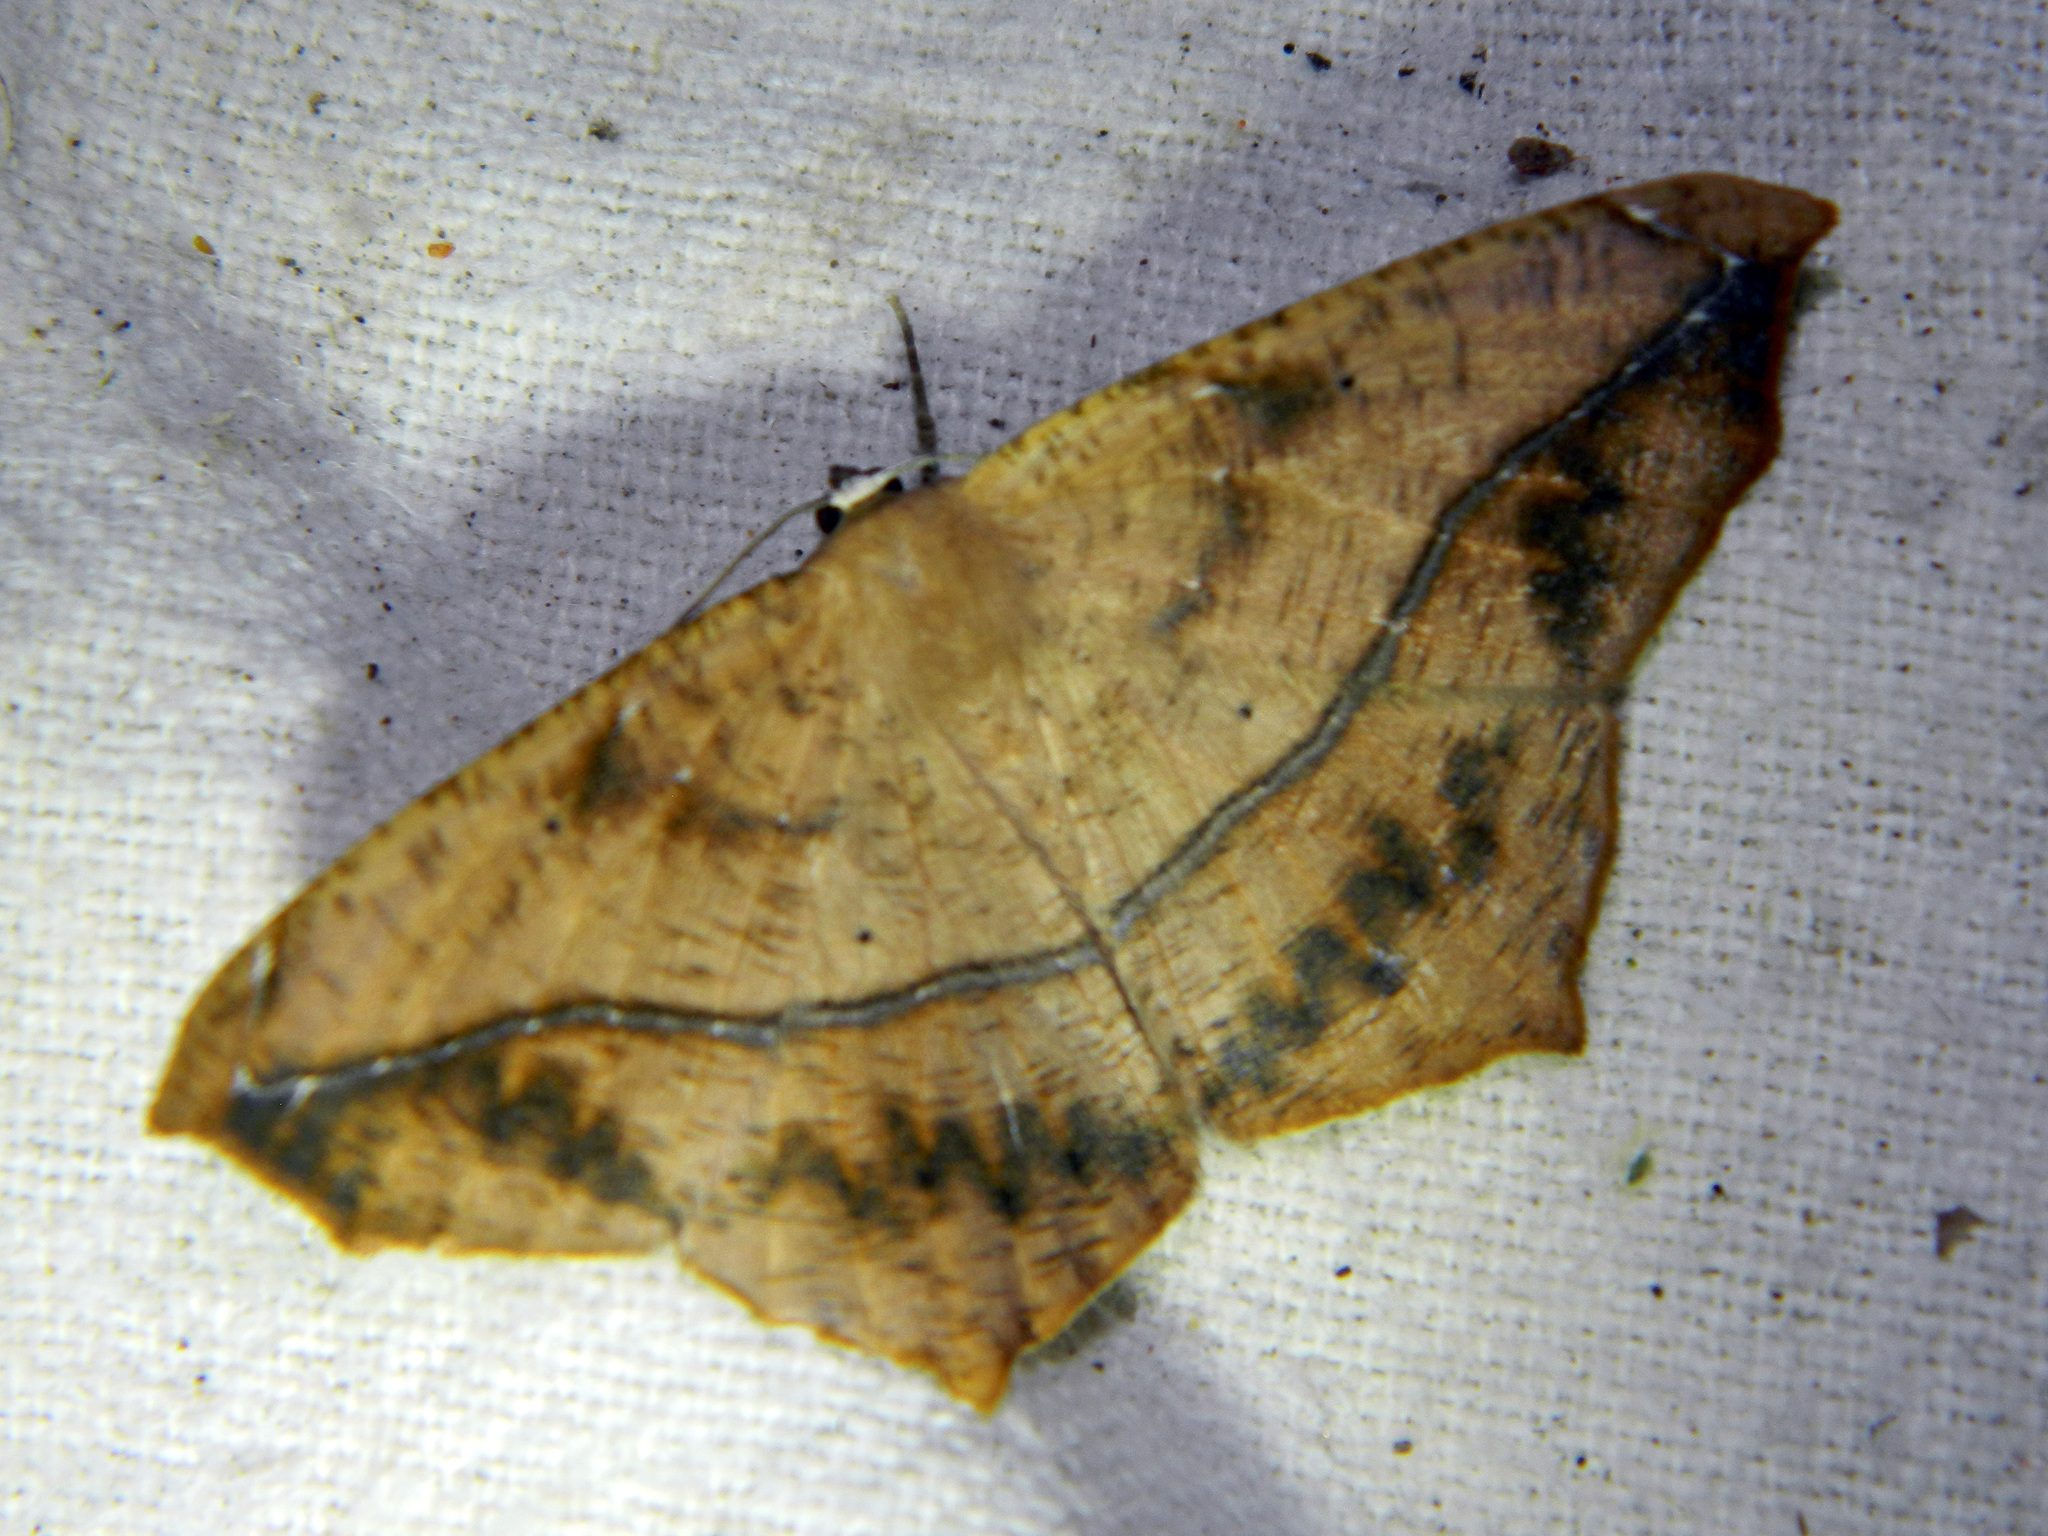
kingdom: Animalia
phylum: Arthropoda
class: Insecta
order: Lepidoptera
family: Geometridae
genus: Prochoerodes
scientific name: Prochoerodes lineola
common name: Large maple spanworm
